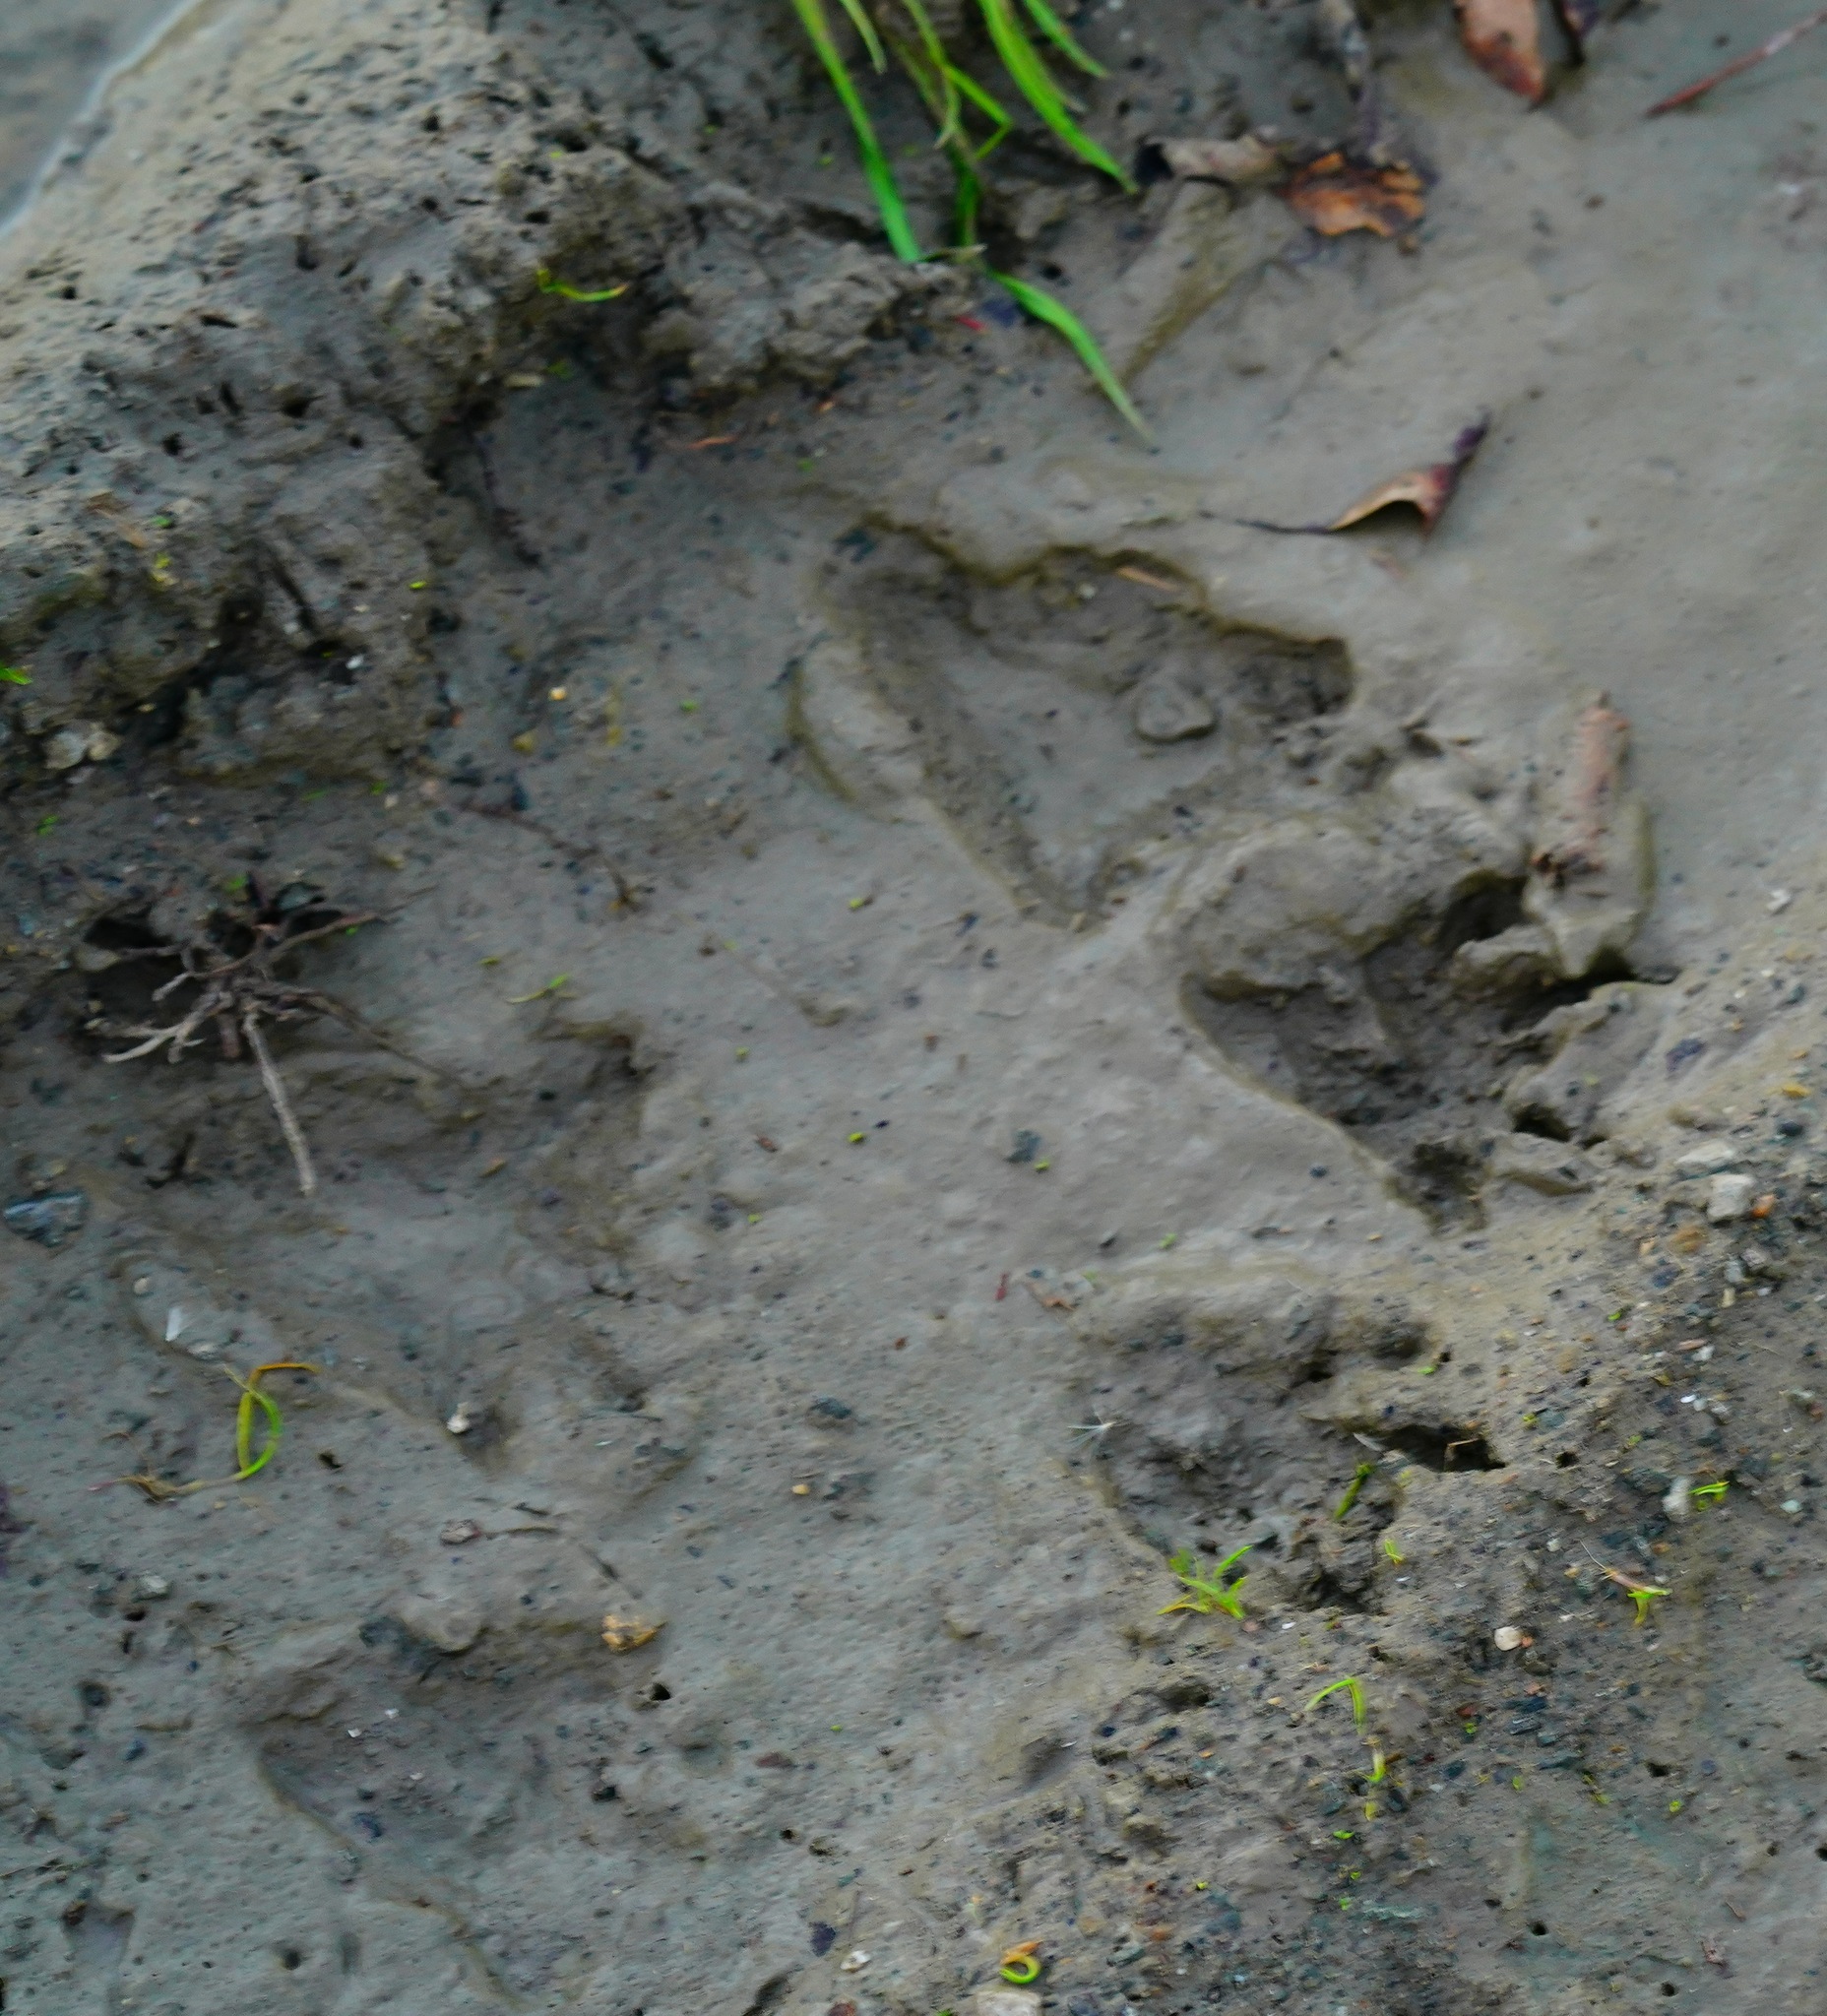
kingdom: Animalia
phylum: Chordata
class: Mammalia
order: Carnivora
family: Procyonidae
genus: Procyon
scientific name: Procyon lotor
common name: Raccoon
